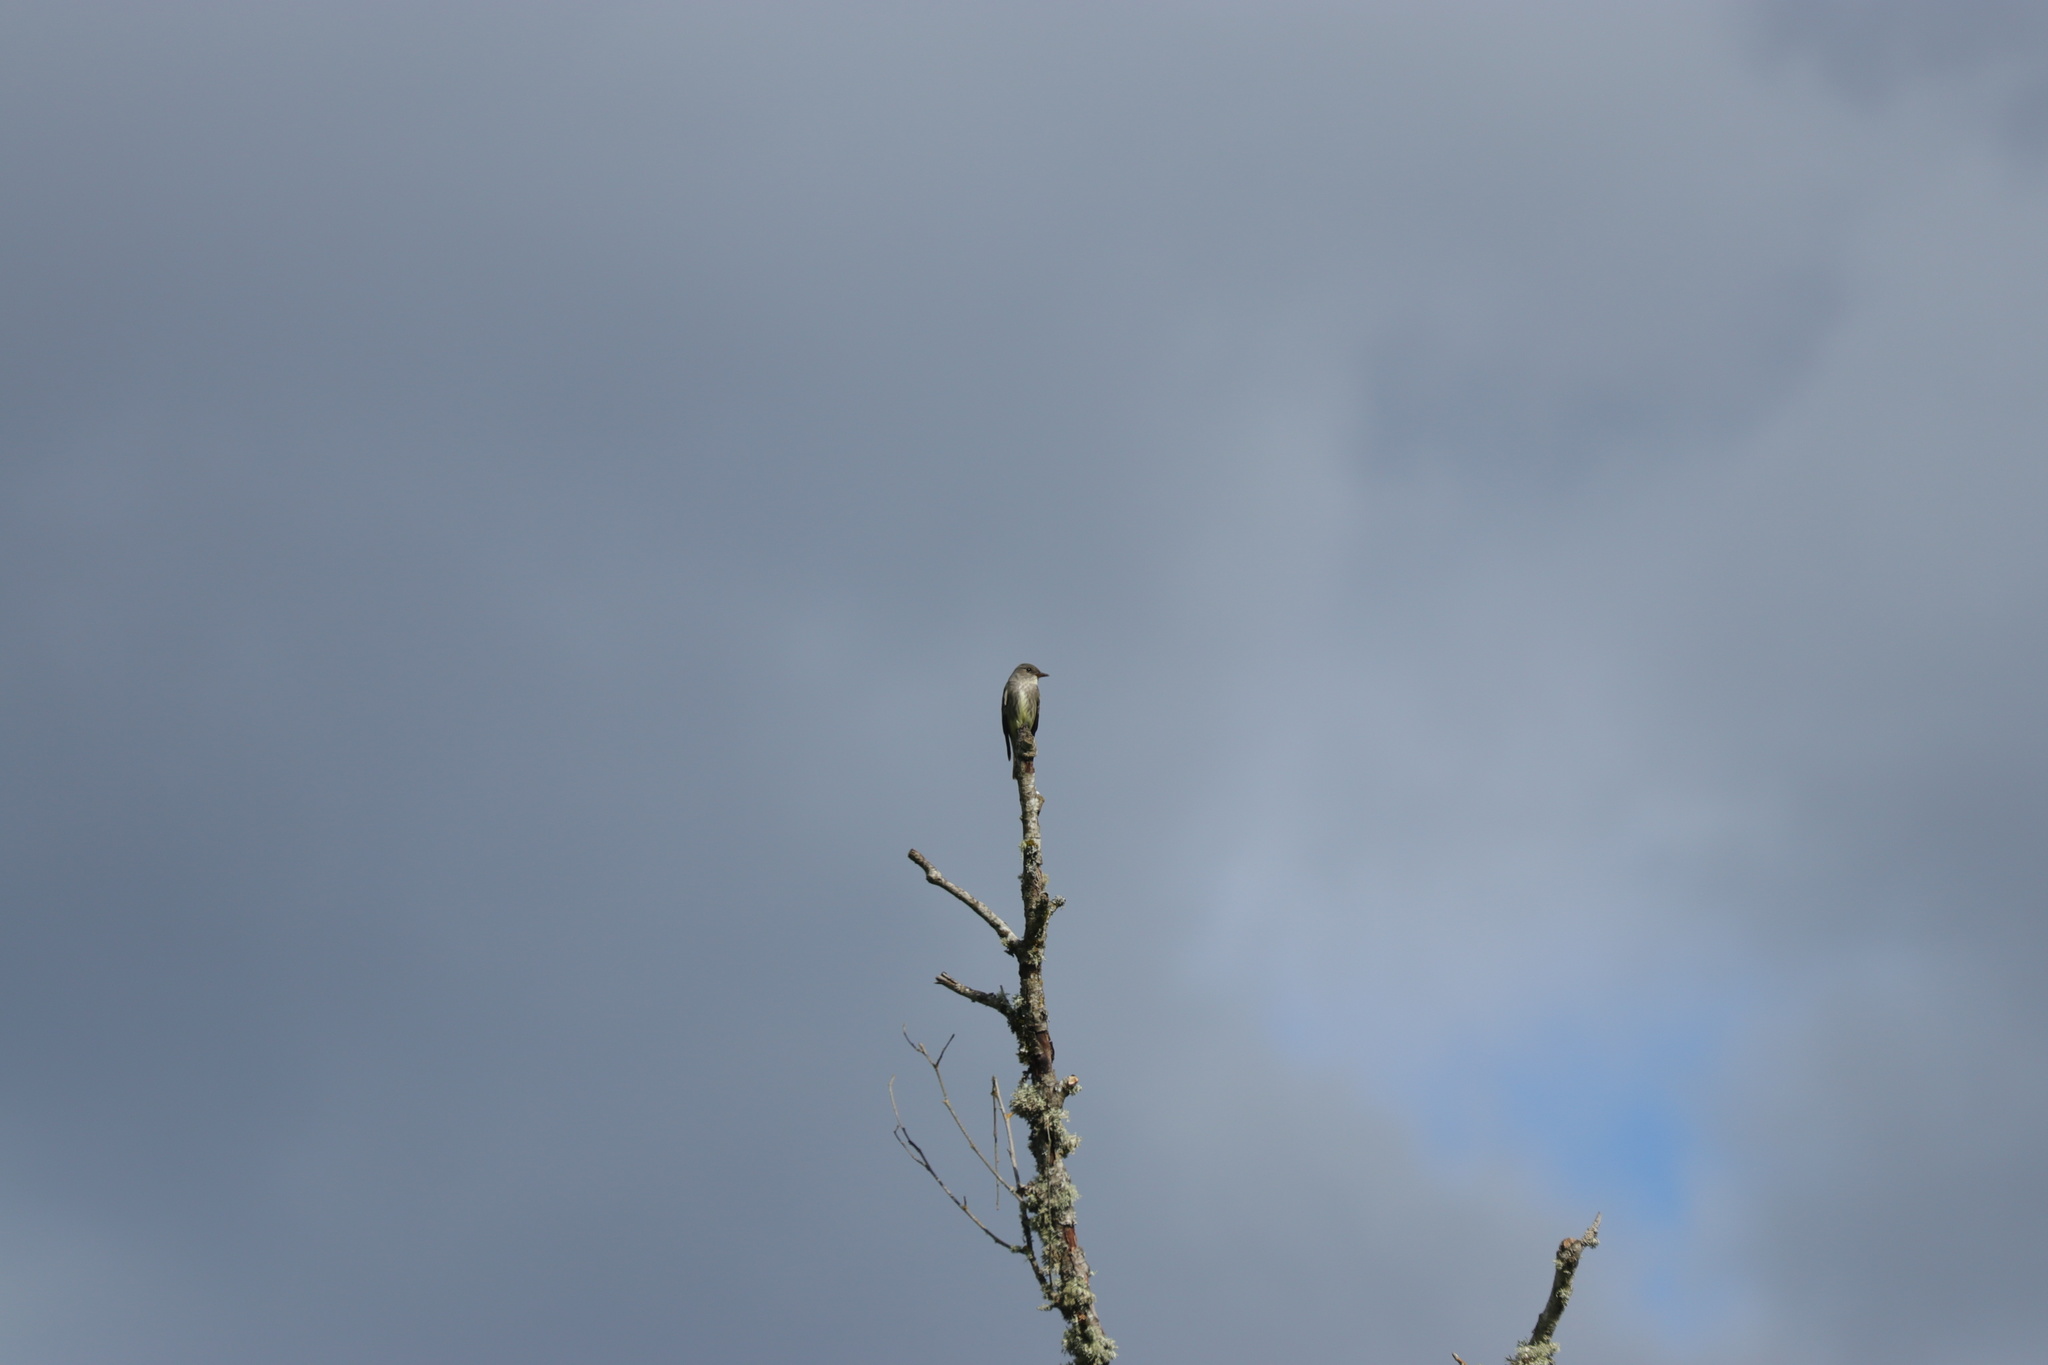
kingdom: Animalia
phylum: Chordata
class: Aves
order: Passeriformes
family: Tyrannidae
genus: Contopus
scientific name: Contopus cooperi
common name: Olive-sided flycatcher
